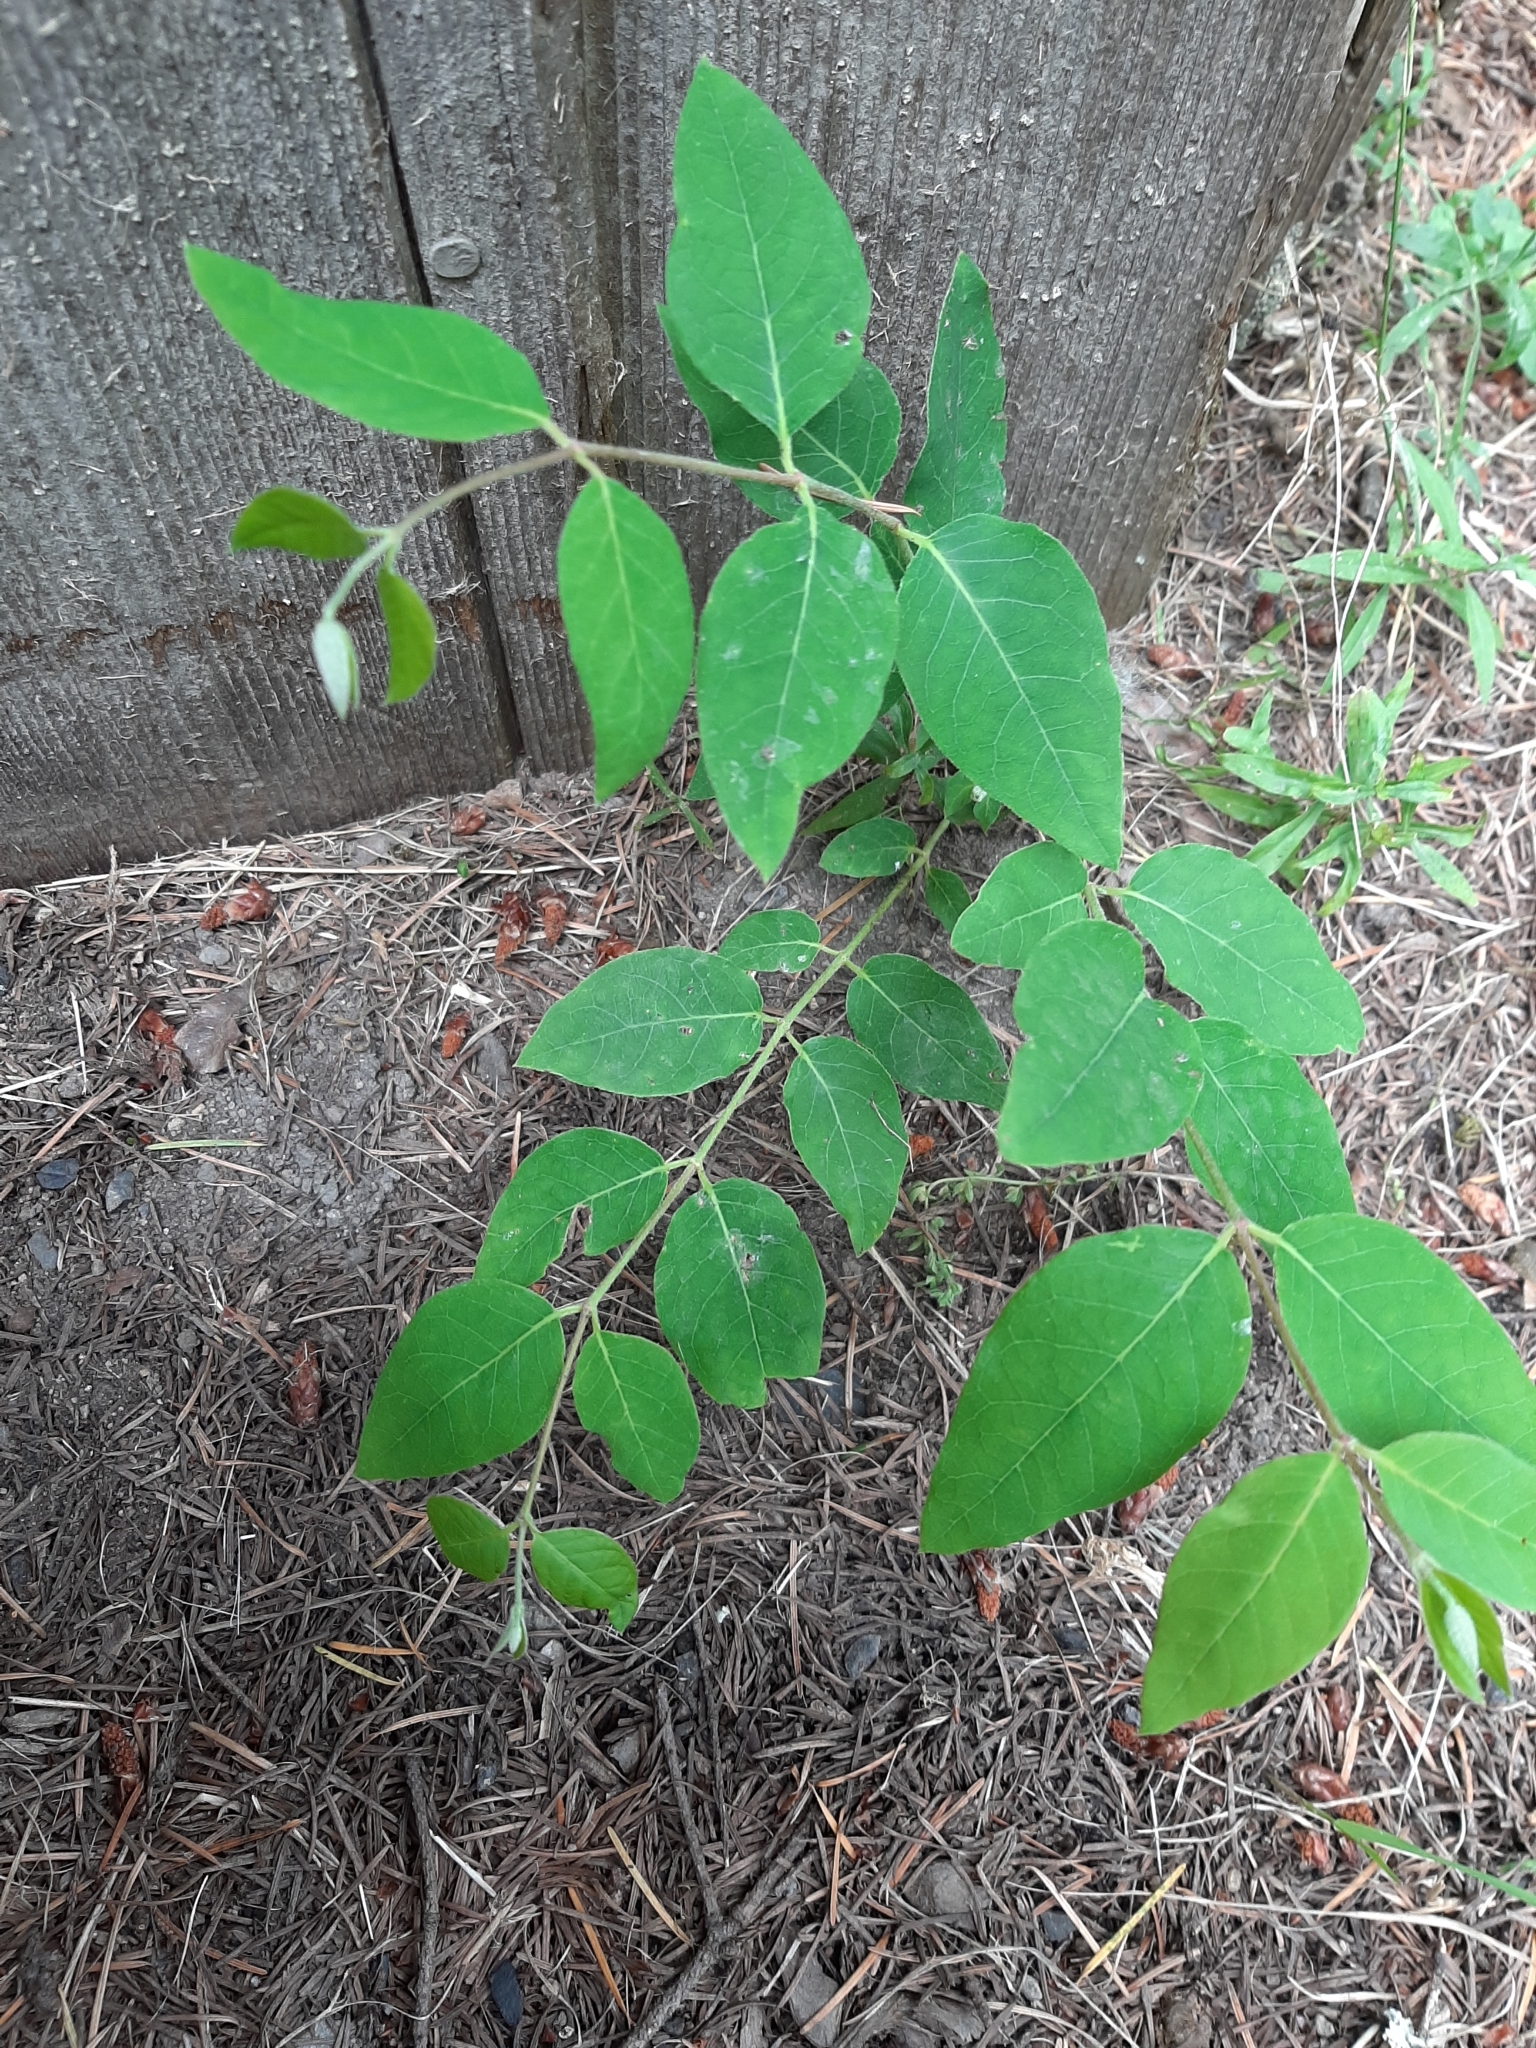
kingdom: Plantae
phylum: Tracheophyta
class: Magnoliopsida
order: Gentianales
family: Apocynaceae
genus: Apocynum
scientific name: Apocynum androsaemifolium
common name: Spreading dogbane
